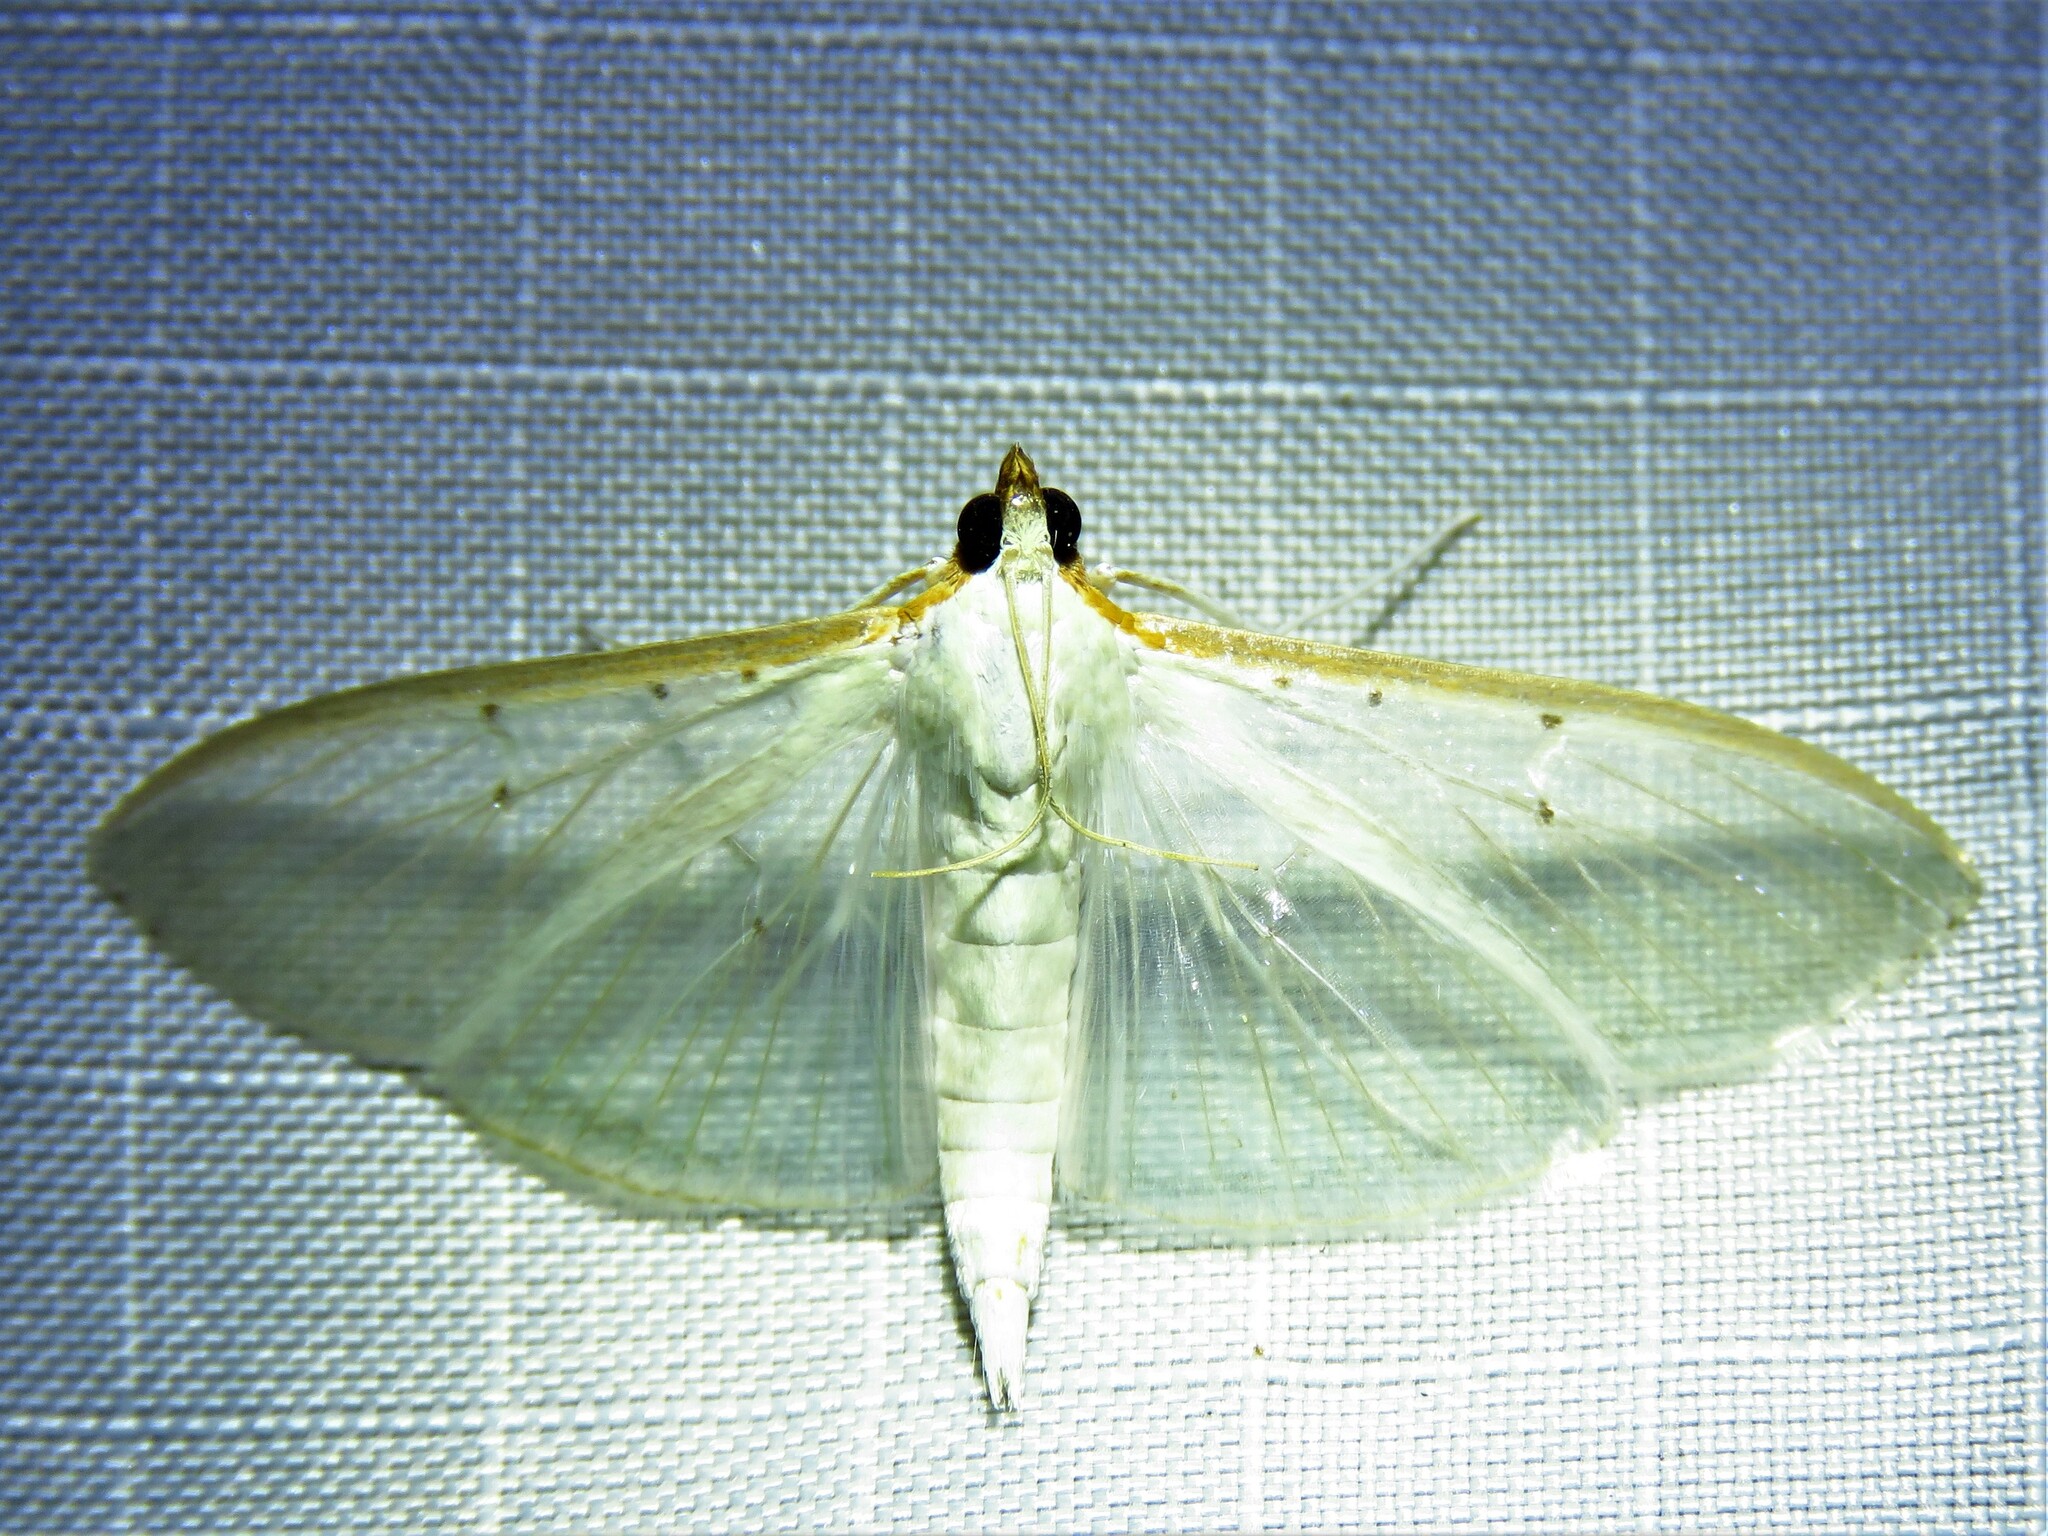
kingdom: Animalia
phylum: Arthropoda
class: Insecta
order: Lepidoptera
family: Crambidae
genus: Palpita
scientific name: Palpita quadristigmalis
